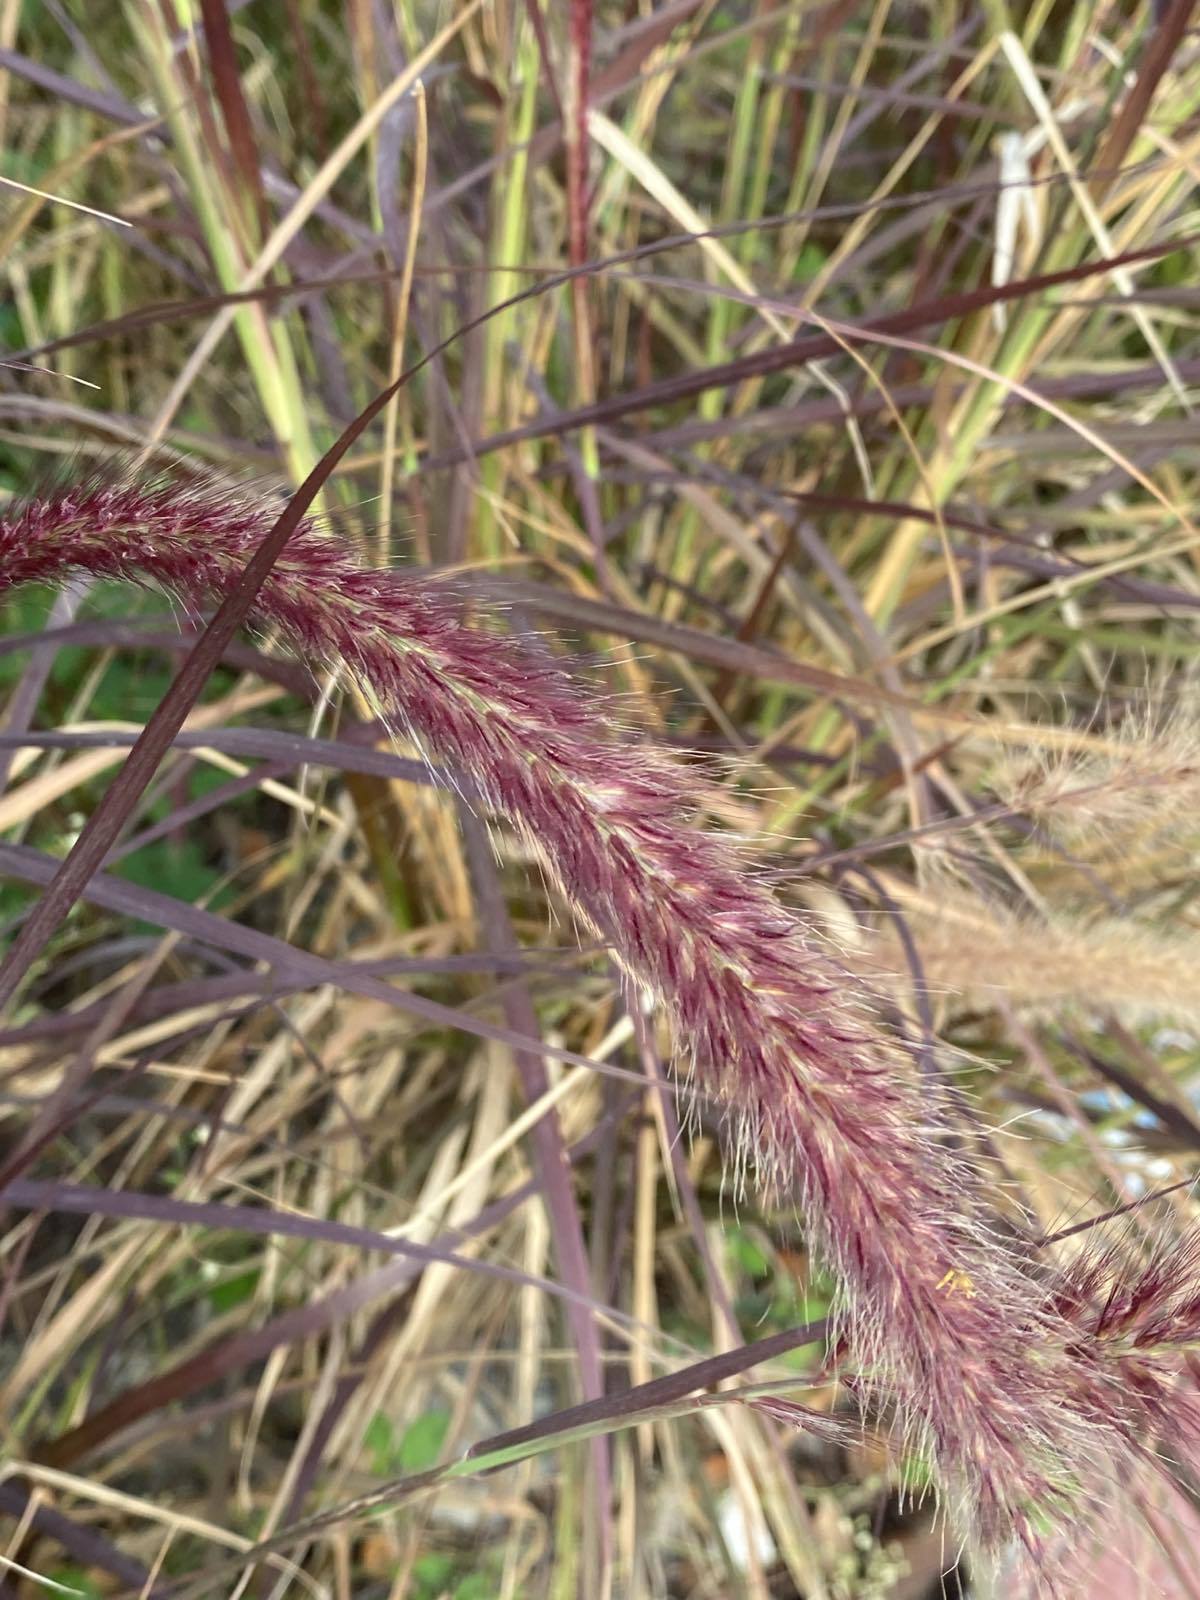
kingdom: Plantae
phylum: Tracheophyta
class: Liliopsida
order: Poales
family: Poaceae
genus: Cenchrus
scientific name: Cenchrus cupreus
